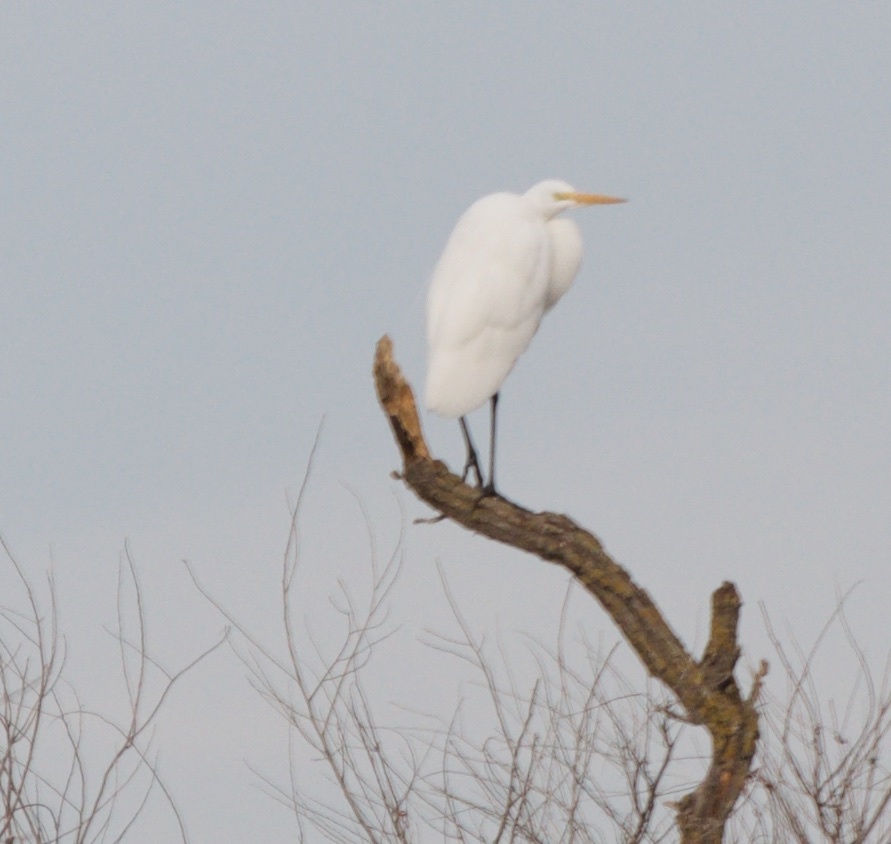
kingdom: Animalia
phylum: Chordata
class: Aves
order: Pelecaniformes
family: Ardeidae
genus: Ardea
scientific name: Ardea alba
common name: Great egret
